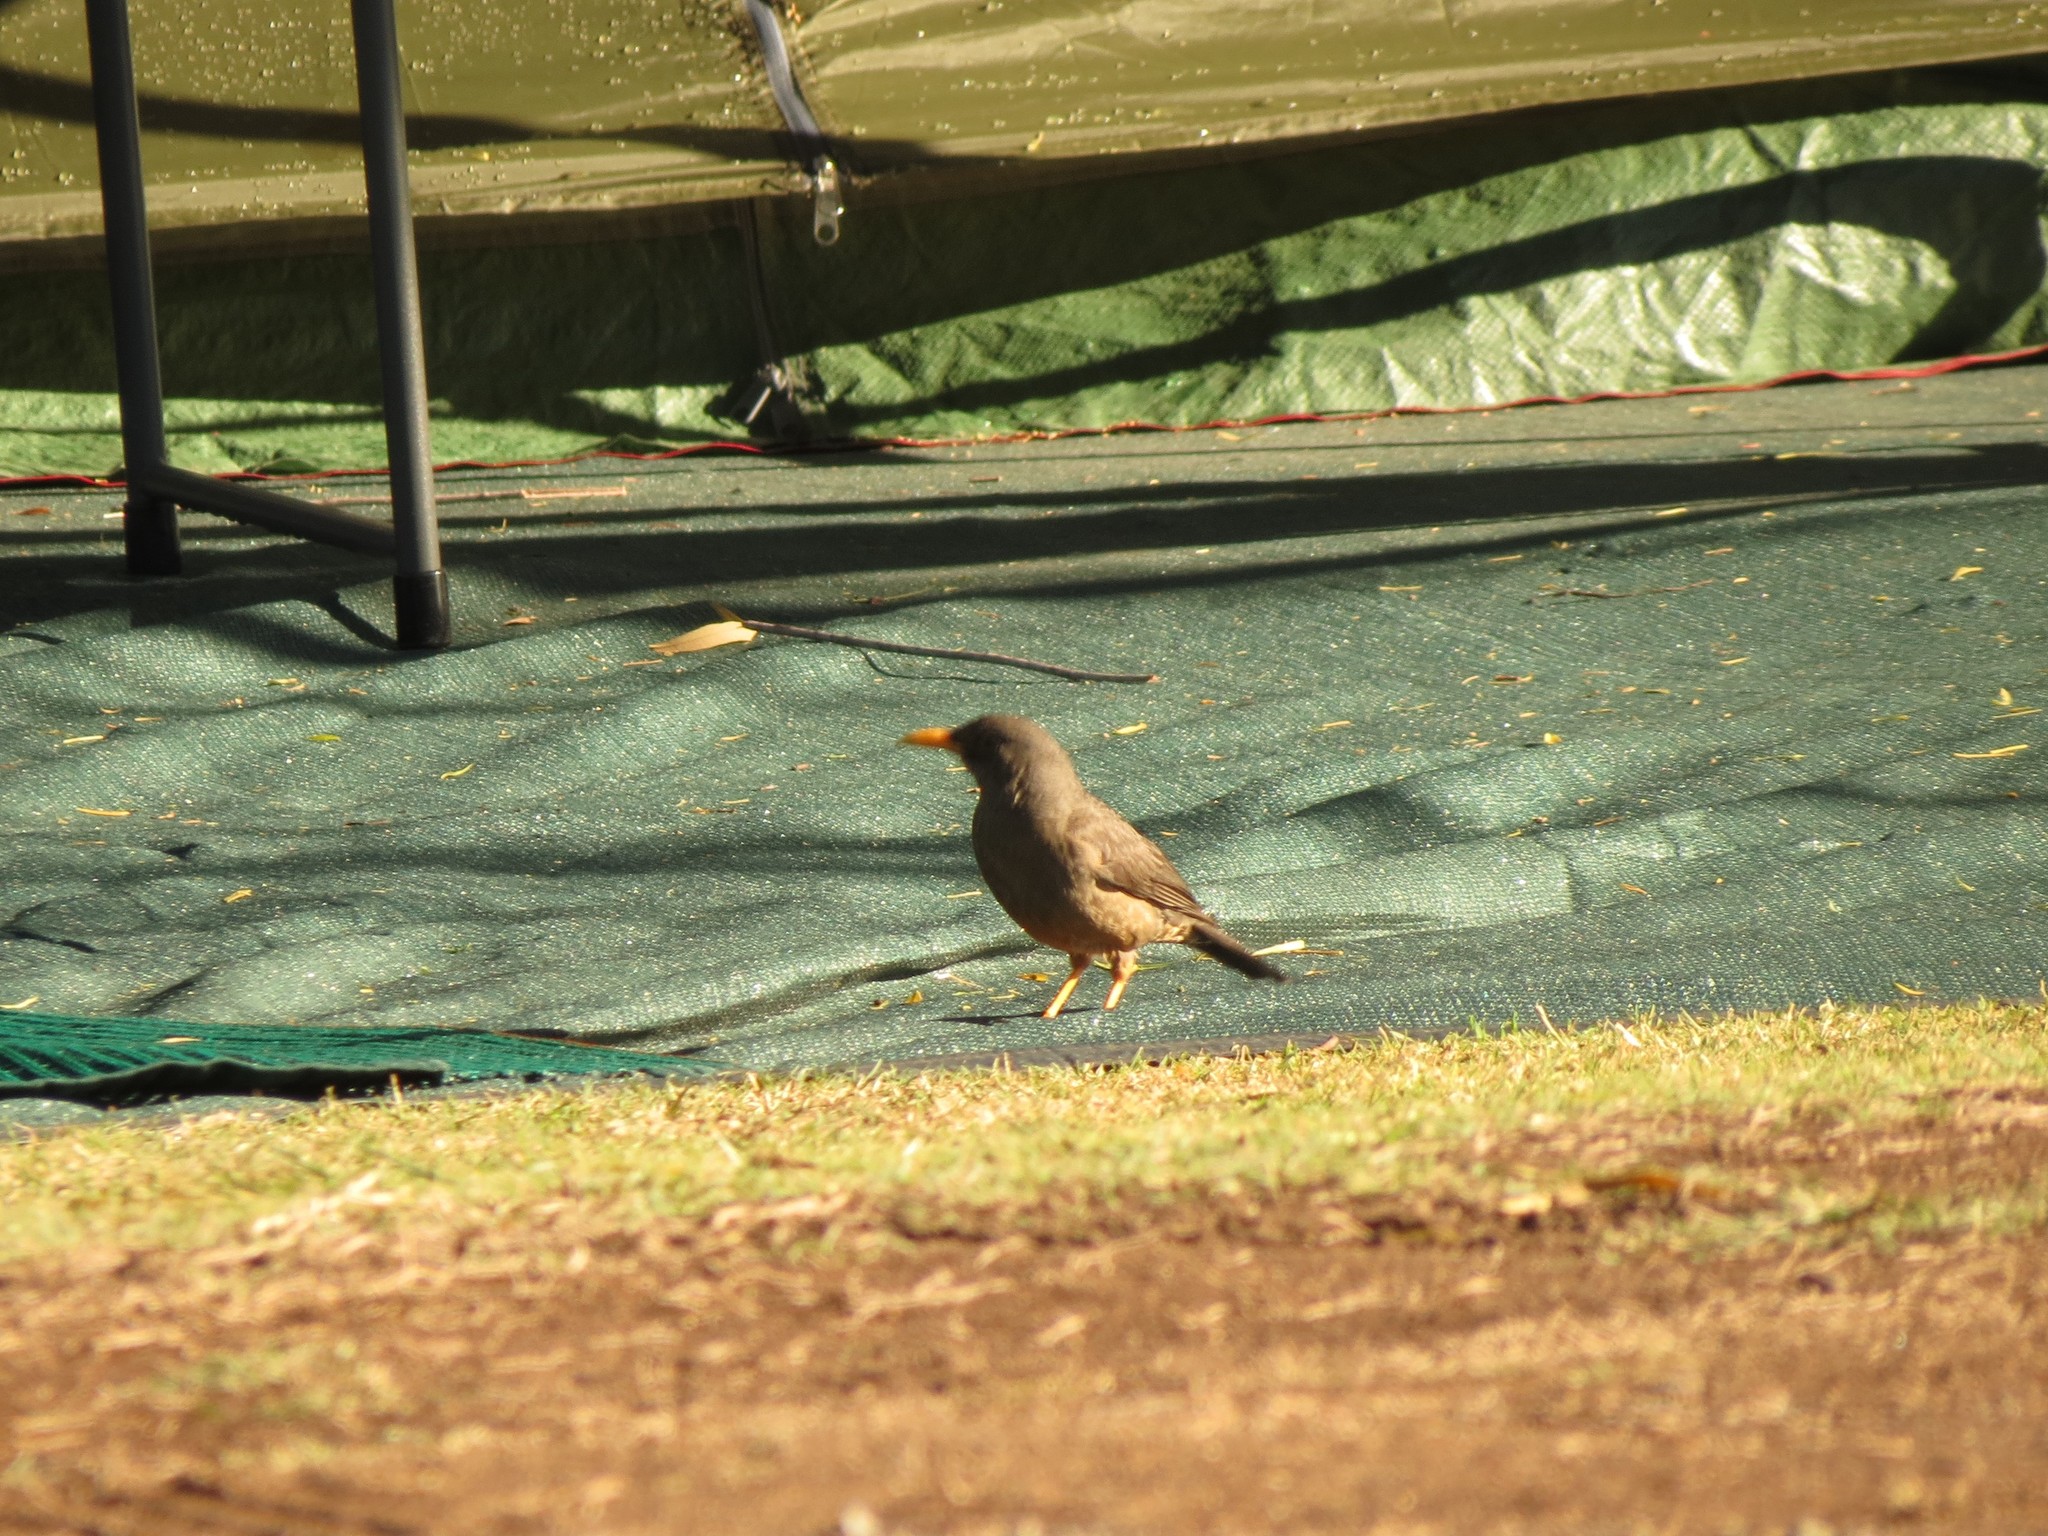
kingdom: Animalia
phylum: Chordata
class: Aves
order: Passeriformes
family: Turdidae
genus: Turdus
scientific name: Turdus smithi
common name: Karoo thrush
